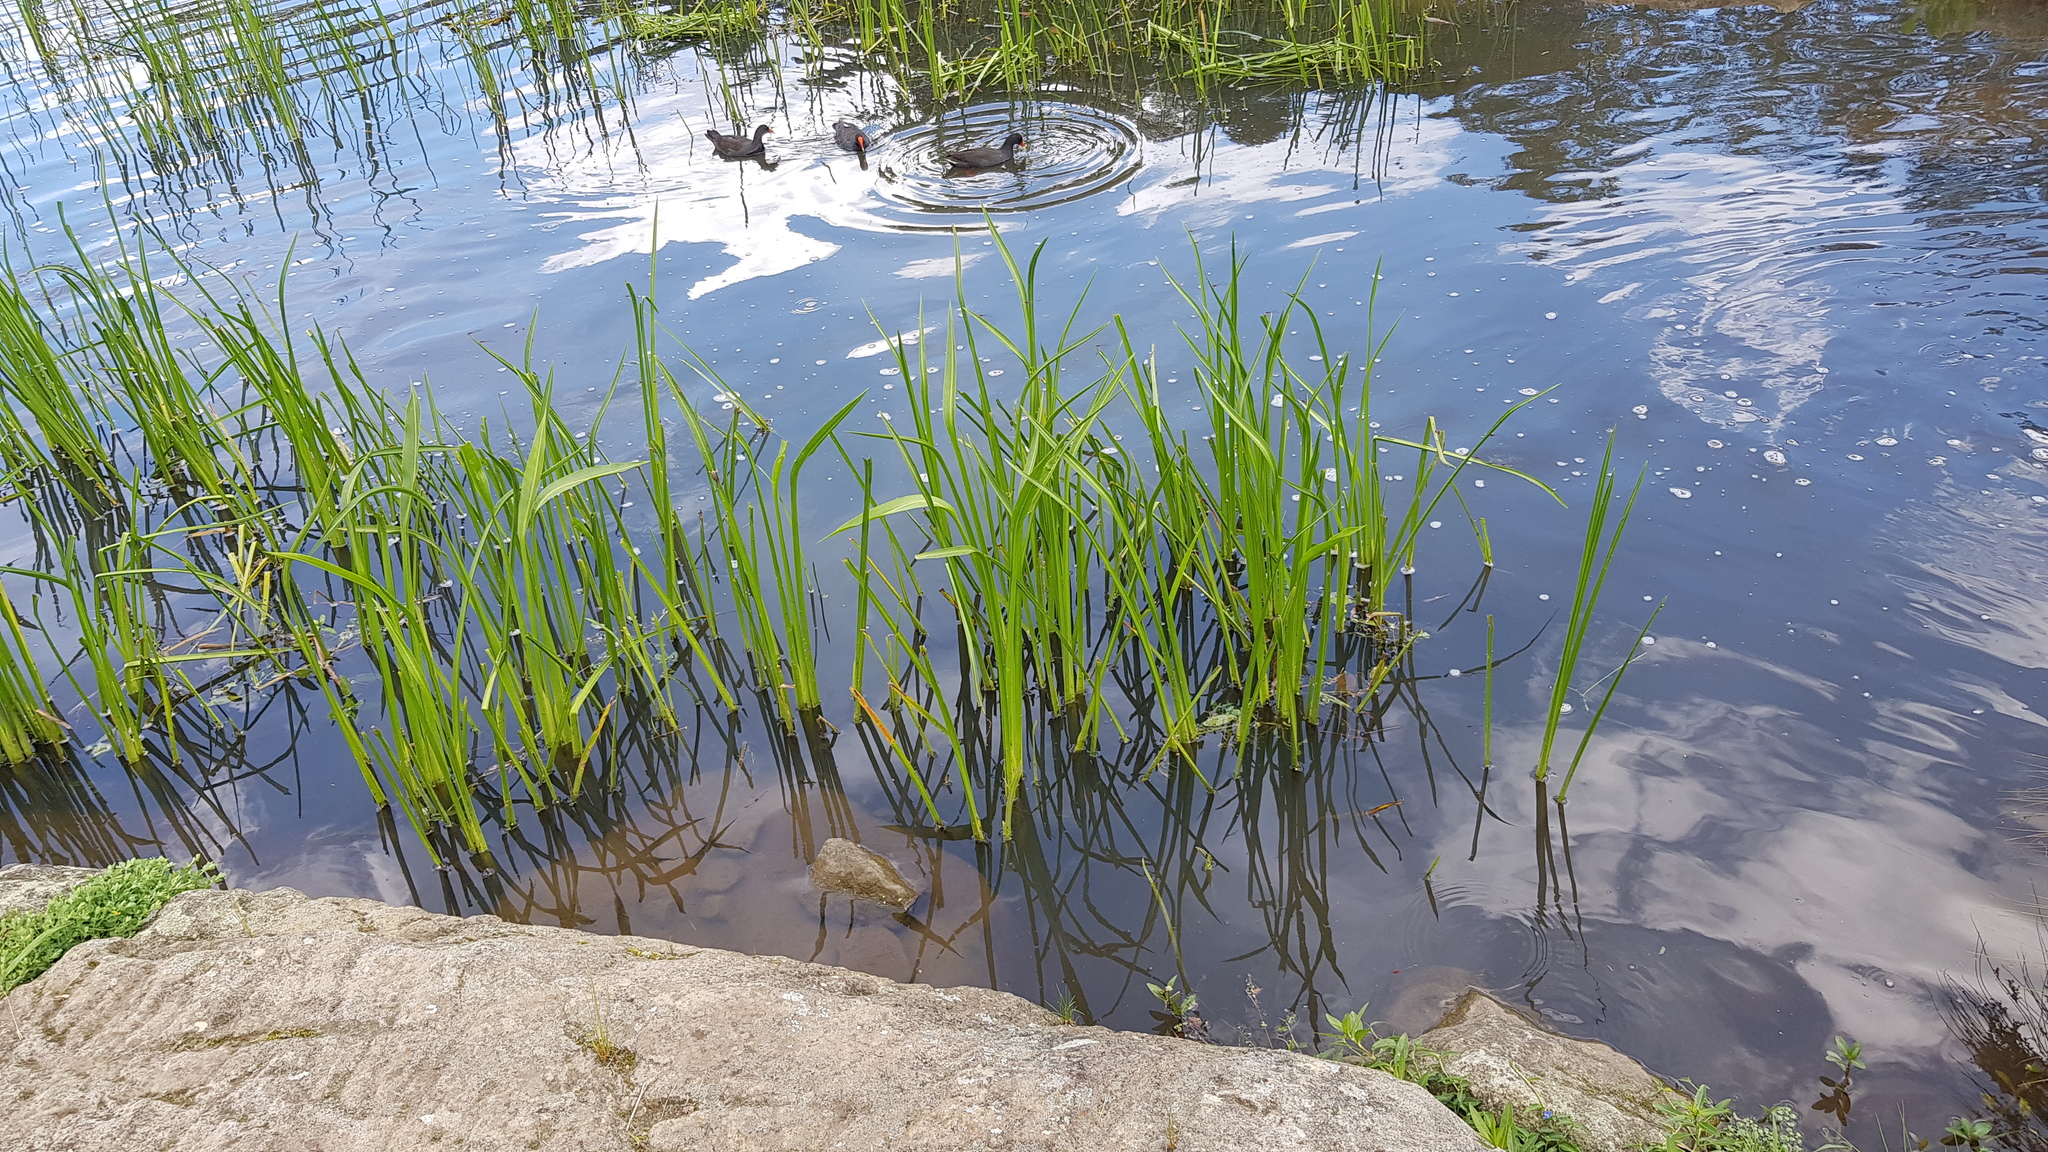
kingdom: Animalia
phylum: Arthropoda
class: Insecta
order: Odonata
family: Coenagrionidae
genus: Xanthagrion
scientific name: Xanthagrion erythroneurum
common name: Red and blue damsel
